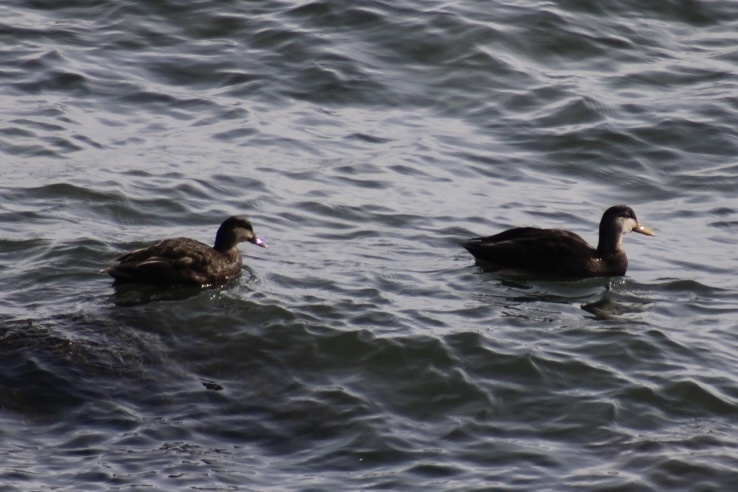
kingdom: Animalia
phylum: Chordata
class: Aves
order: Anseriformes
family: Anatidae
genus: Anas
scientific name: Anas rubripes
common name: American black duck
